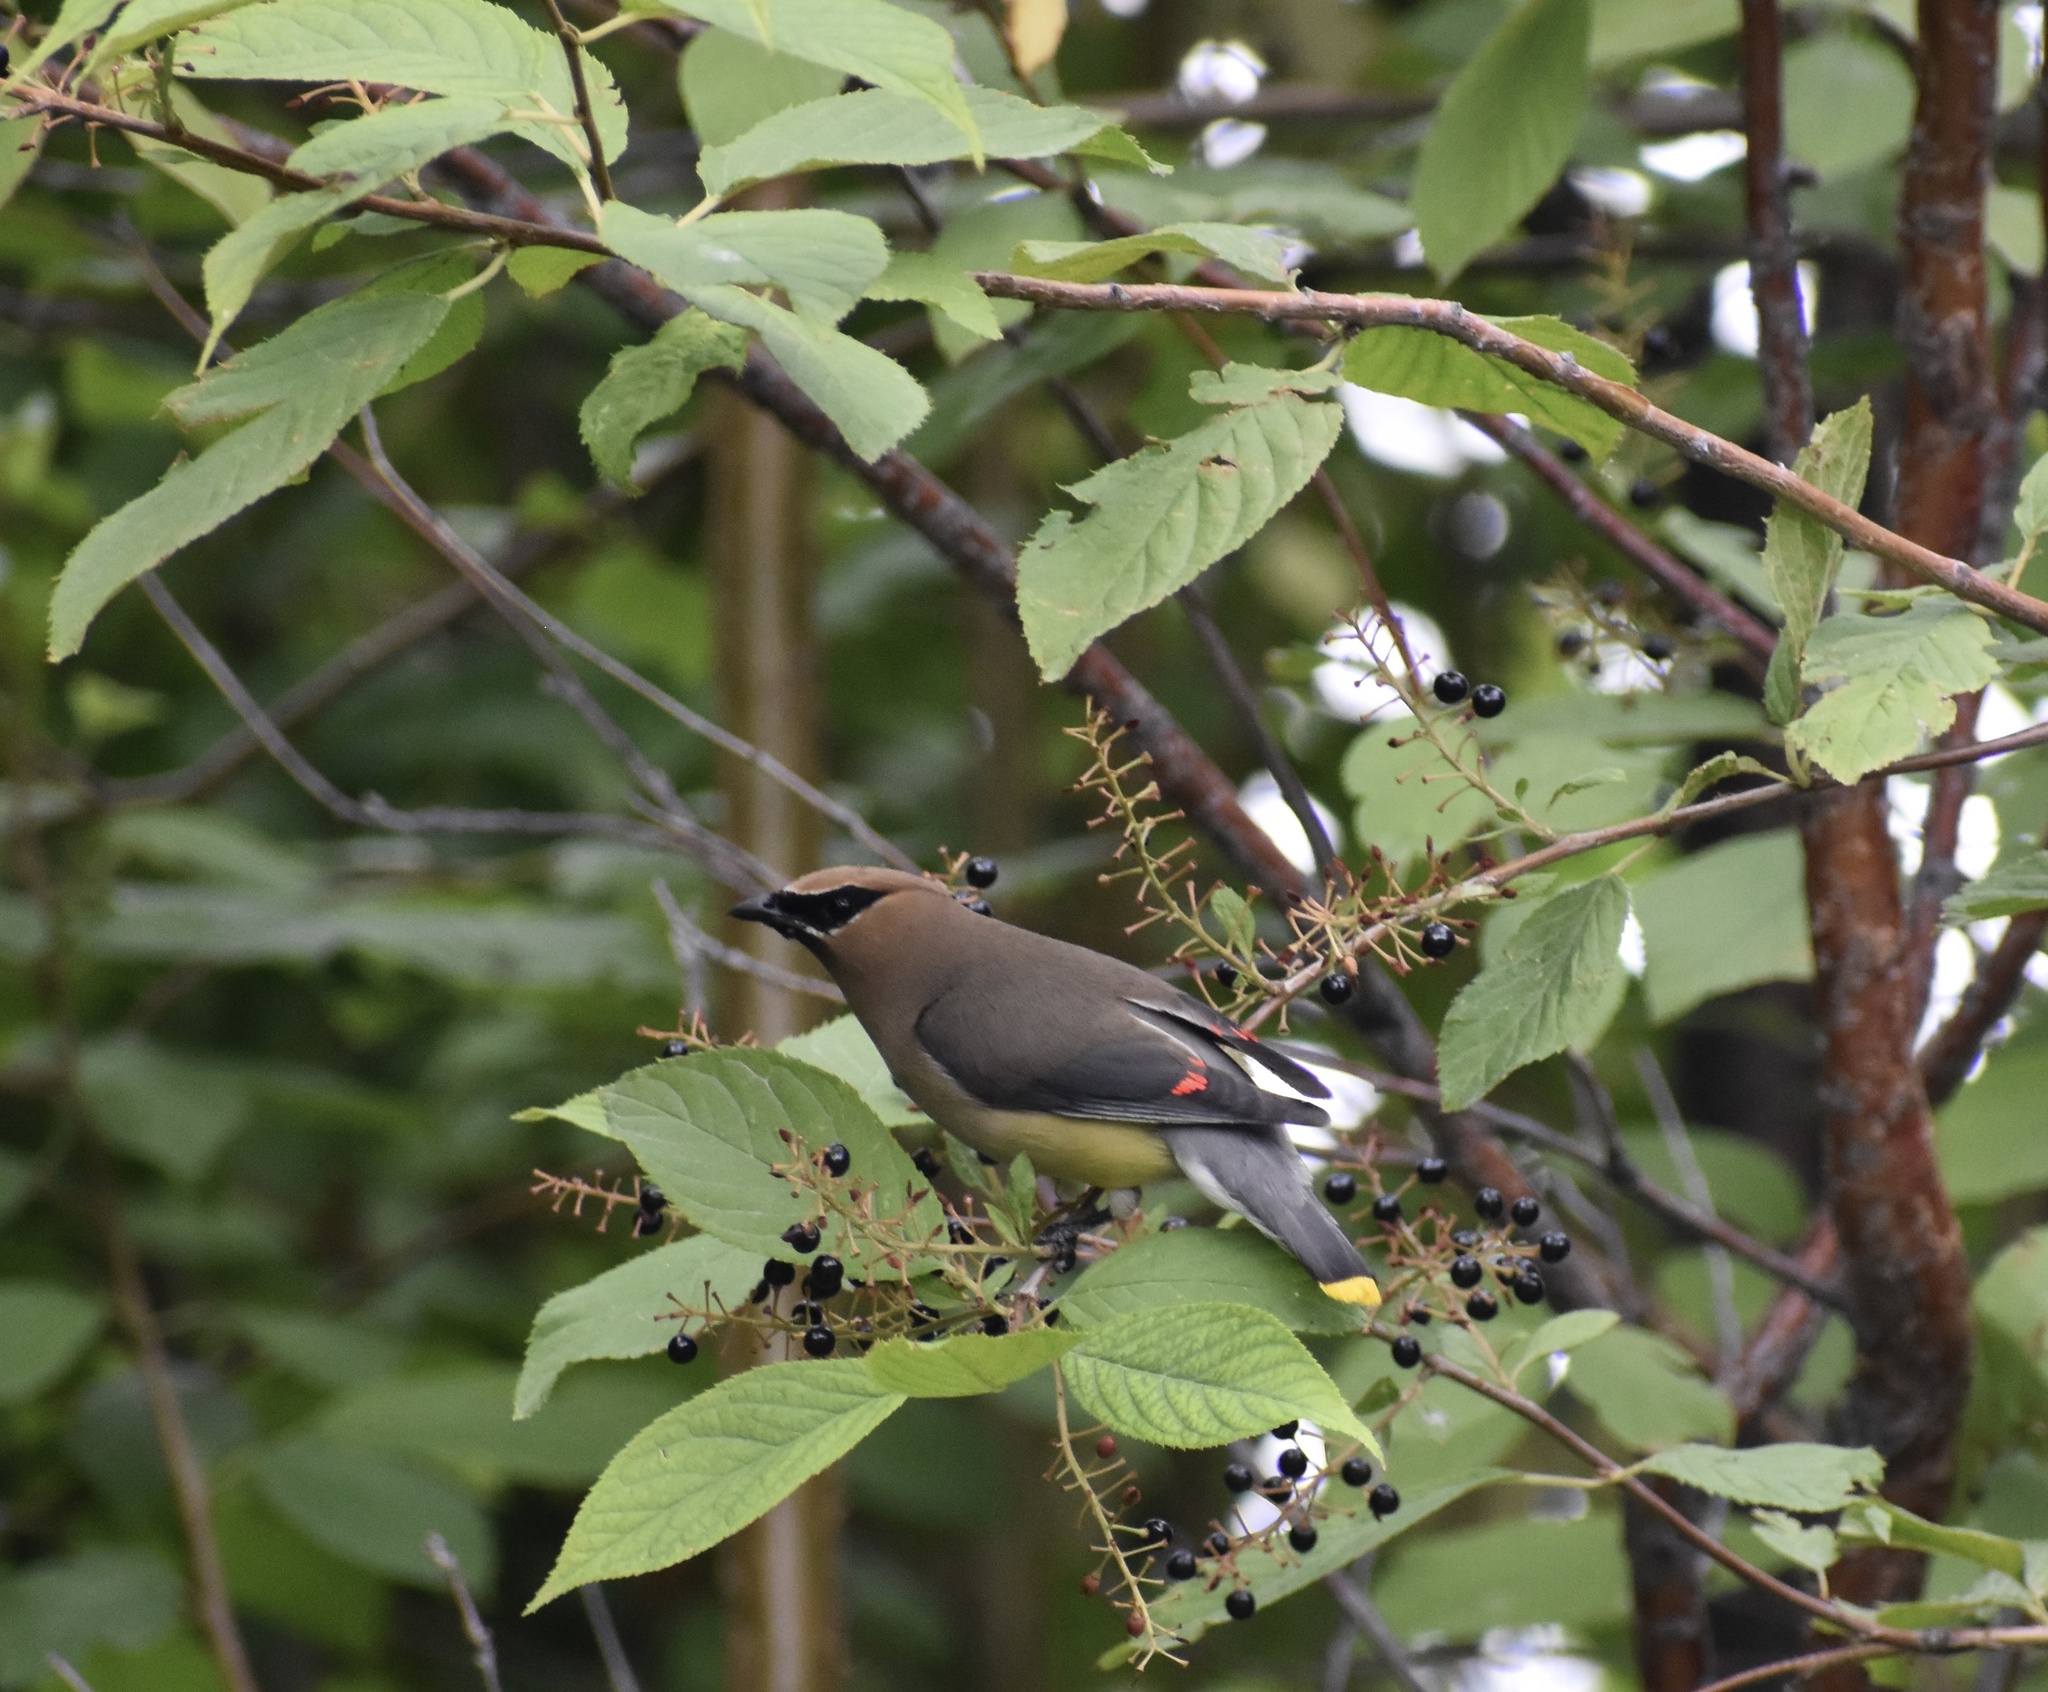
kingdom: Animalia
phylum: Chordata
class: Aves
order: Passeriformes
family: Bombycillidae
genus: Bombycilla
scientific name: Bombycilla cedrorum
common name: Cedar waxwing
